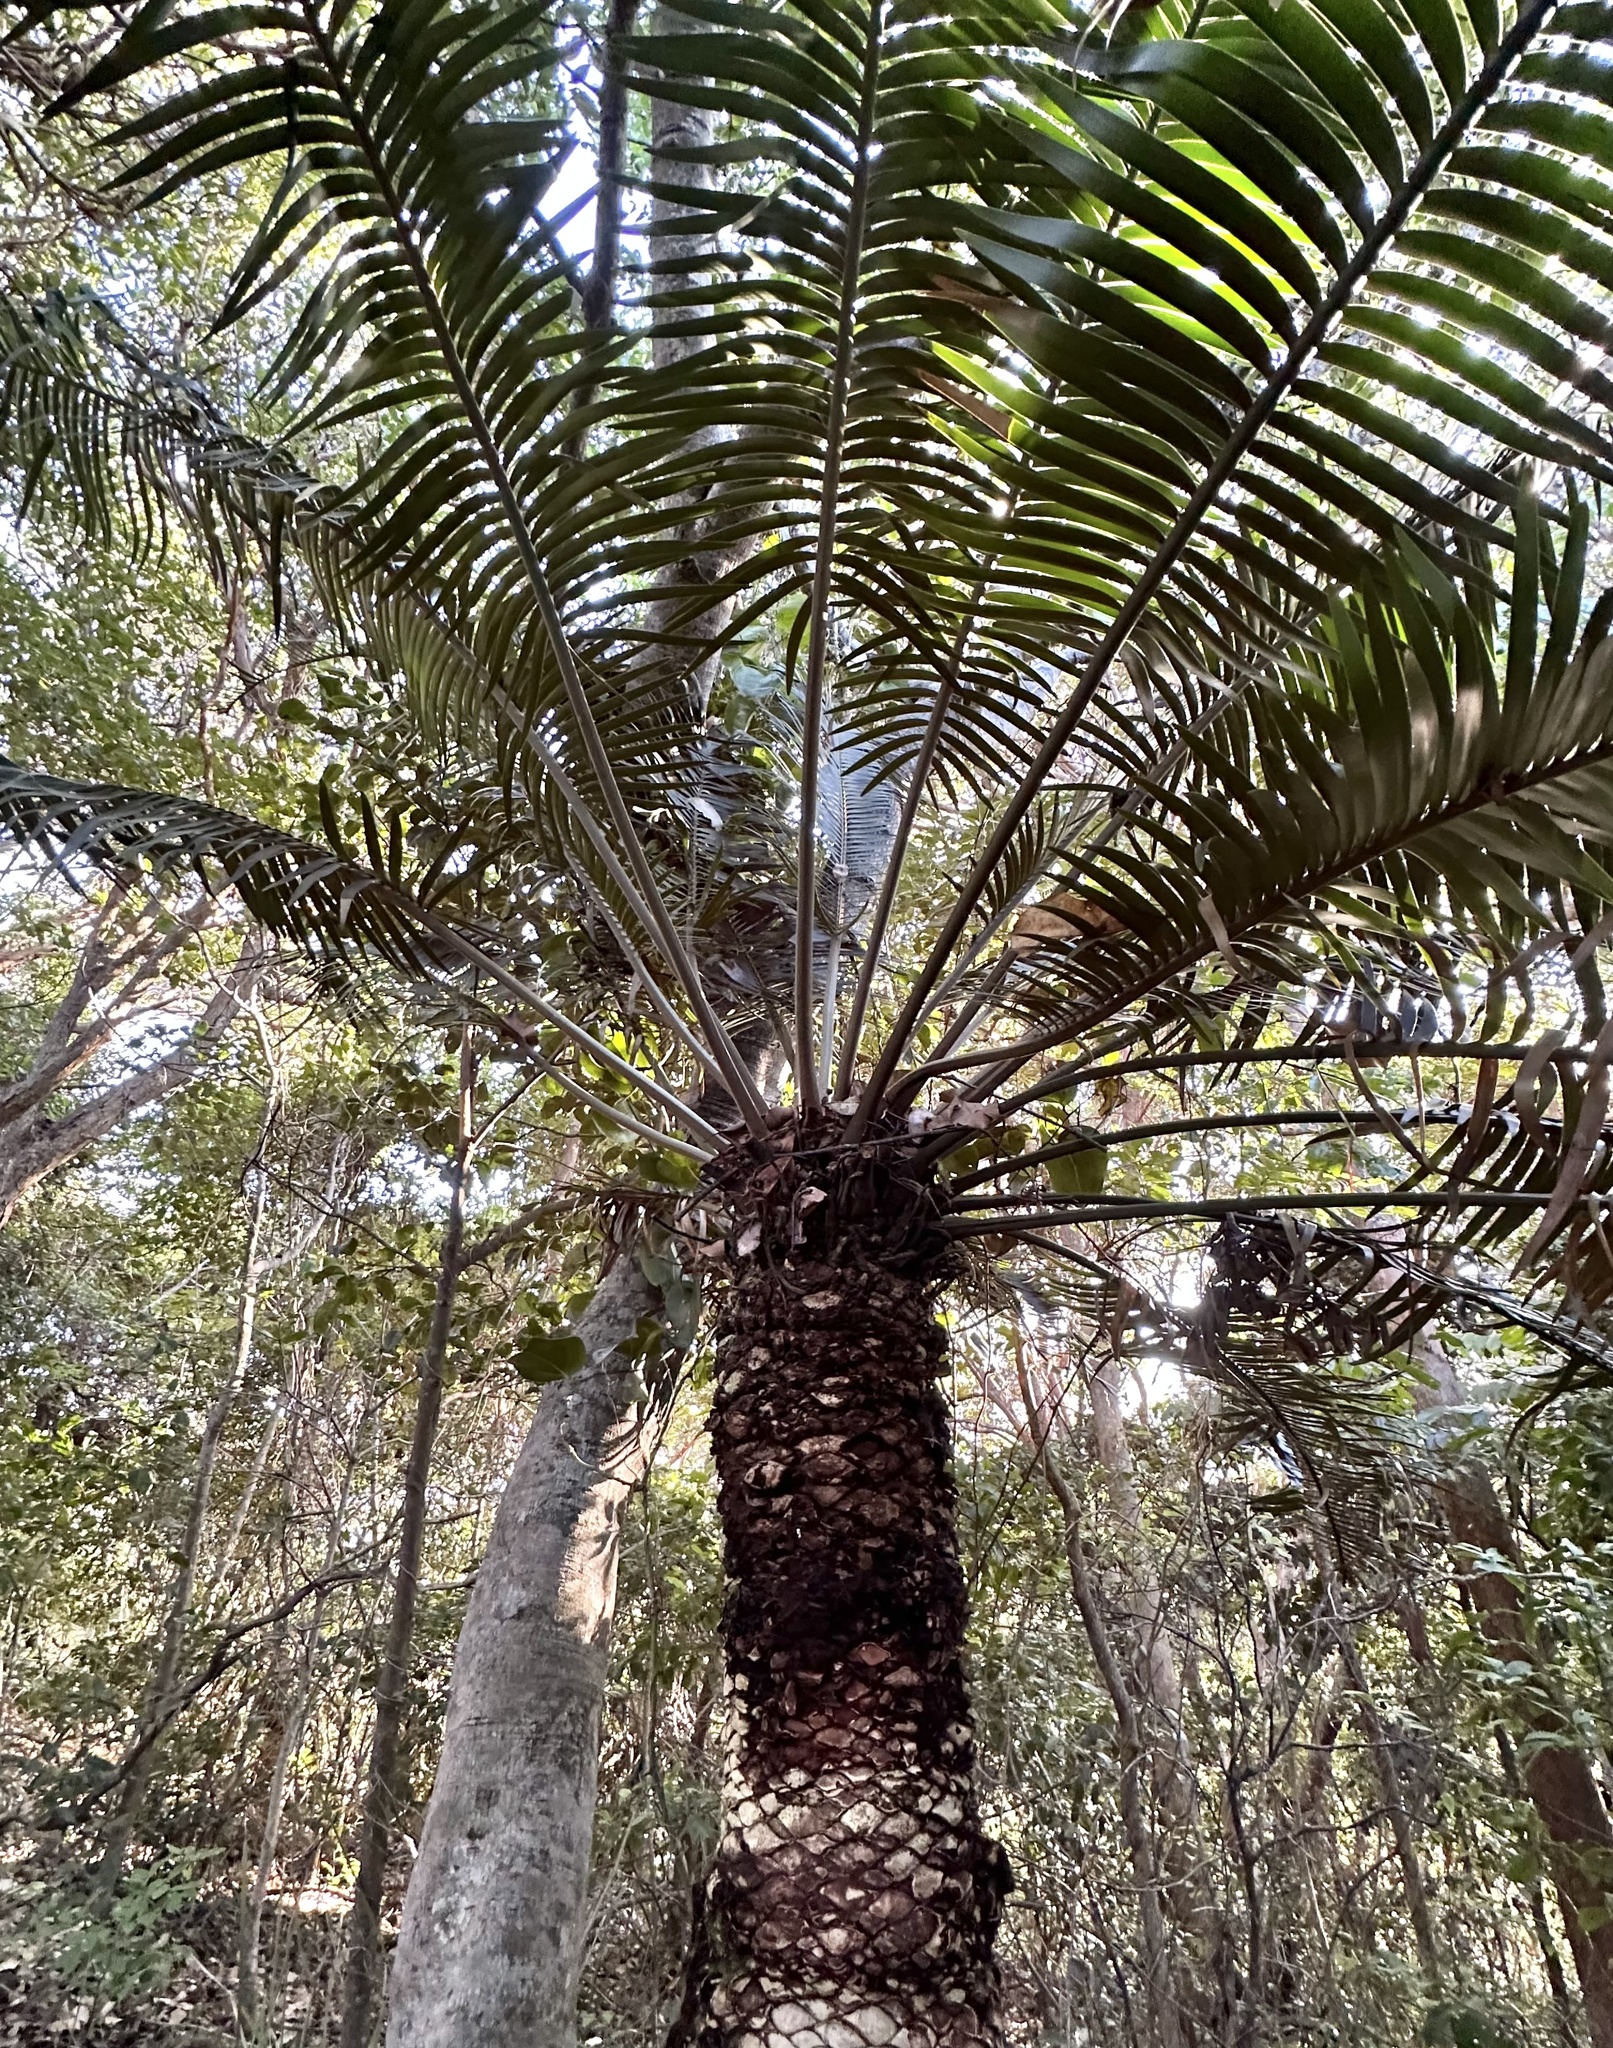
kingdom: Plantae
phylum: Tracheophyta
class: Cycadopsida
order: Cycadales
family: Zamiaceae
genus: Lepidozamia
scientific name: Lepidozamia peroffskyana
